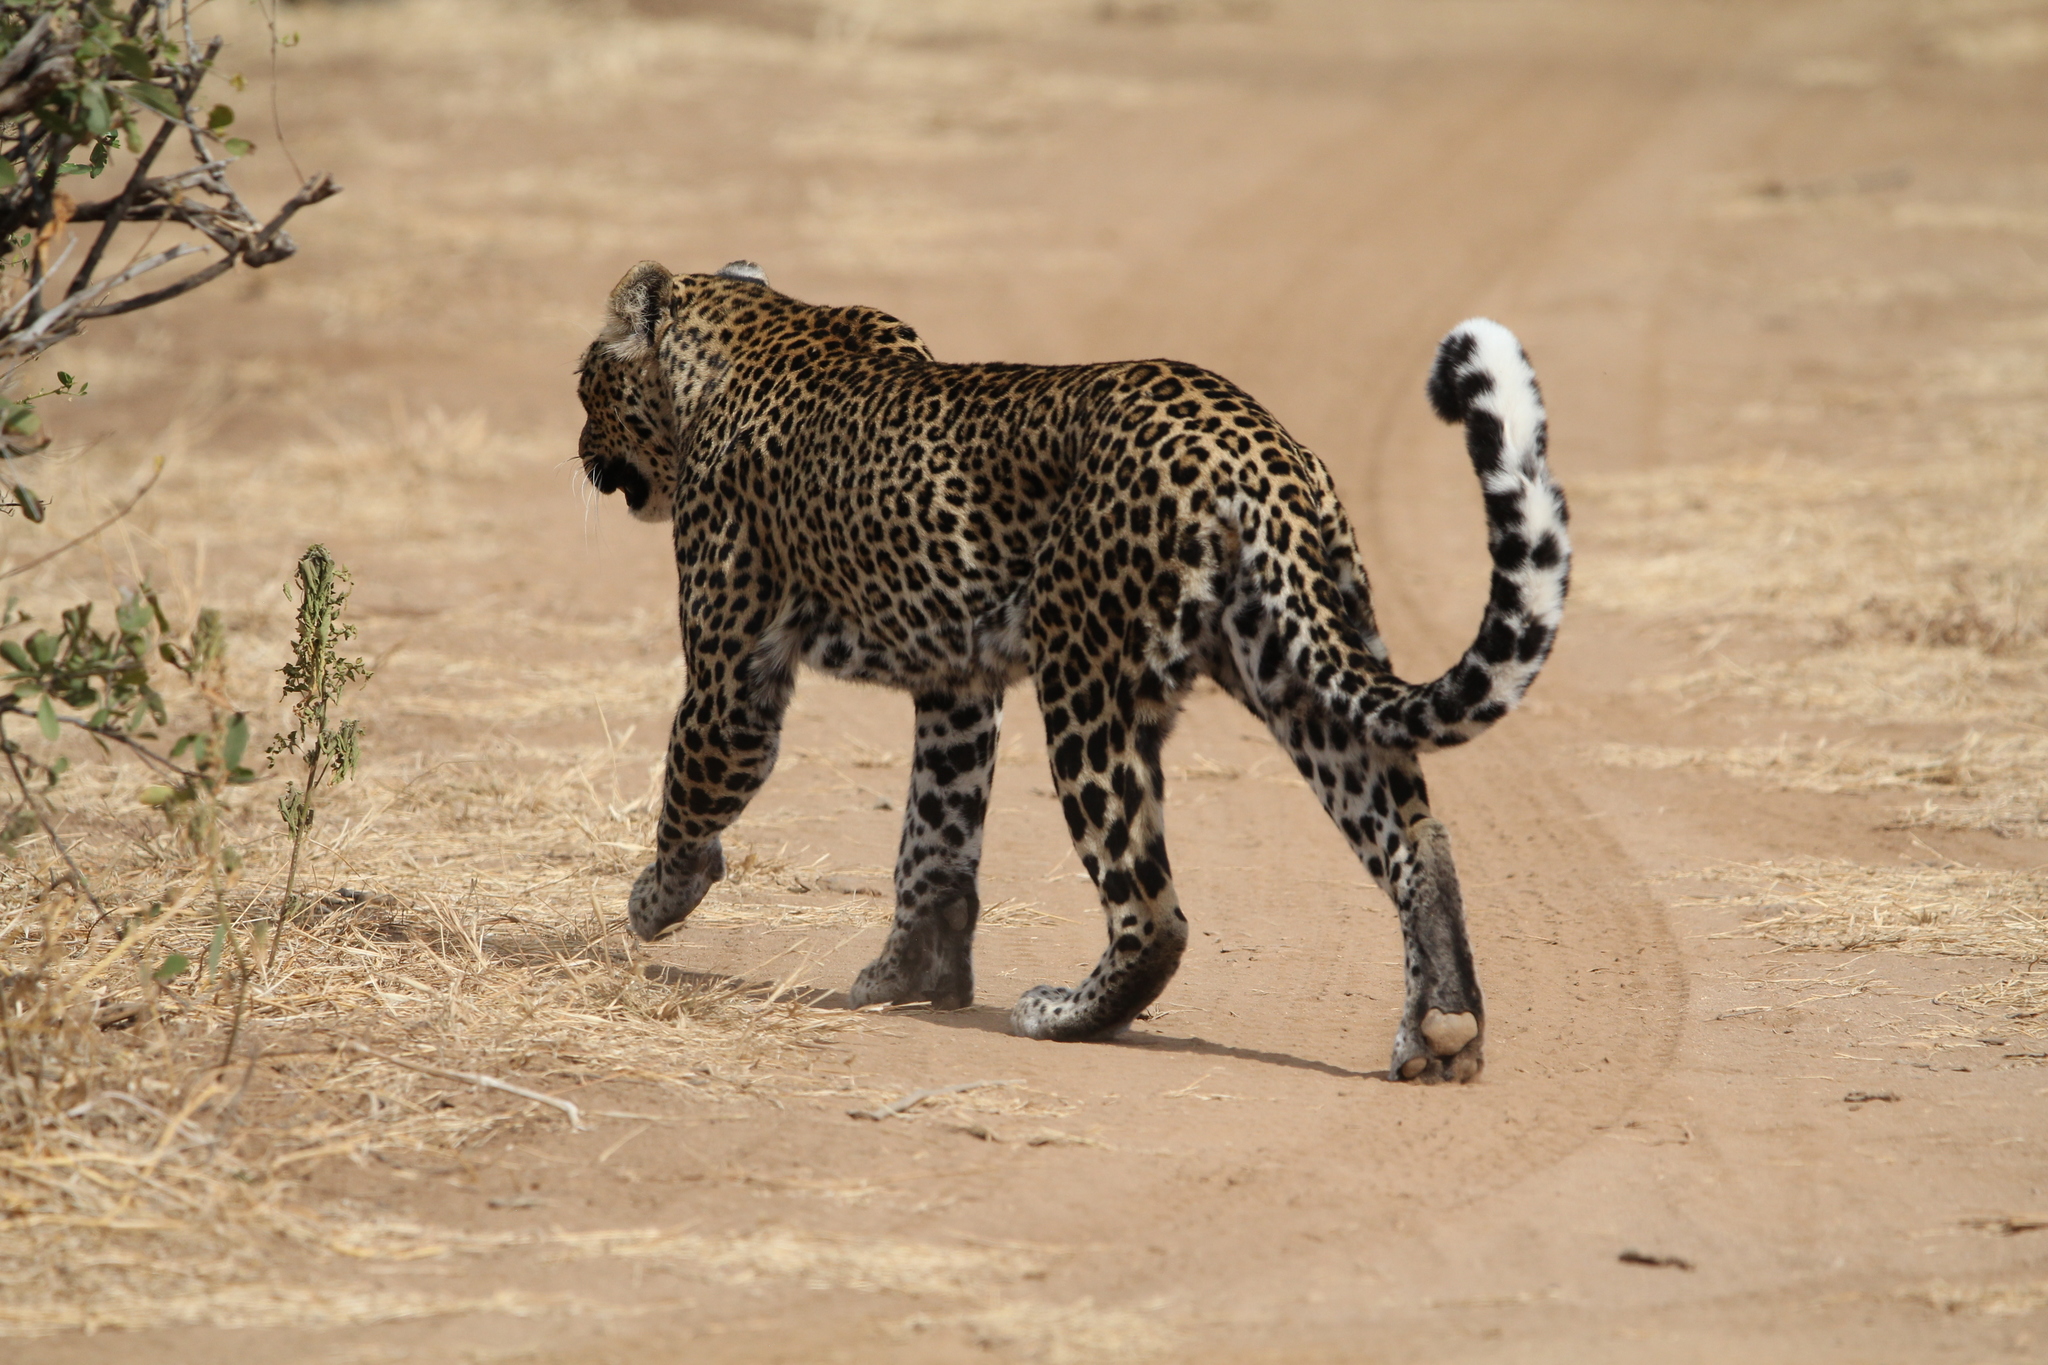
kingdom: Animalia
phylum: Chordata
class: Mammalia
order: Carnivora
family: Felidae
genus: Panthera
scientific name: Panthera pardus
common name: Leopard
